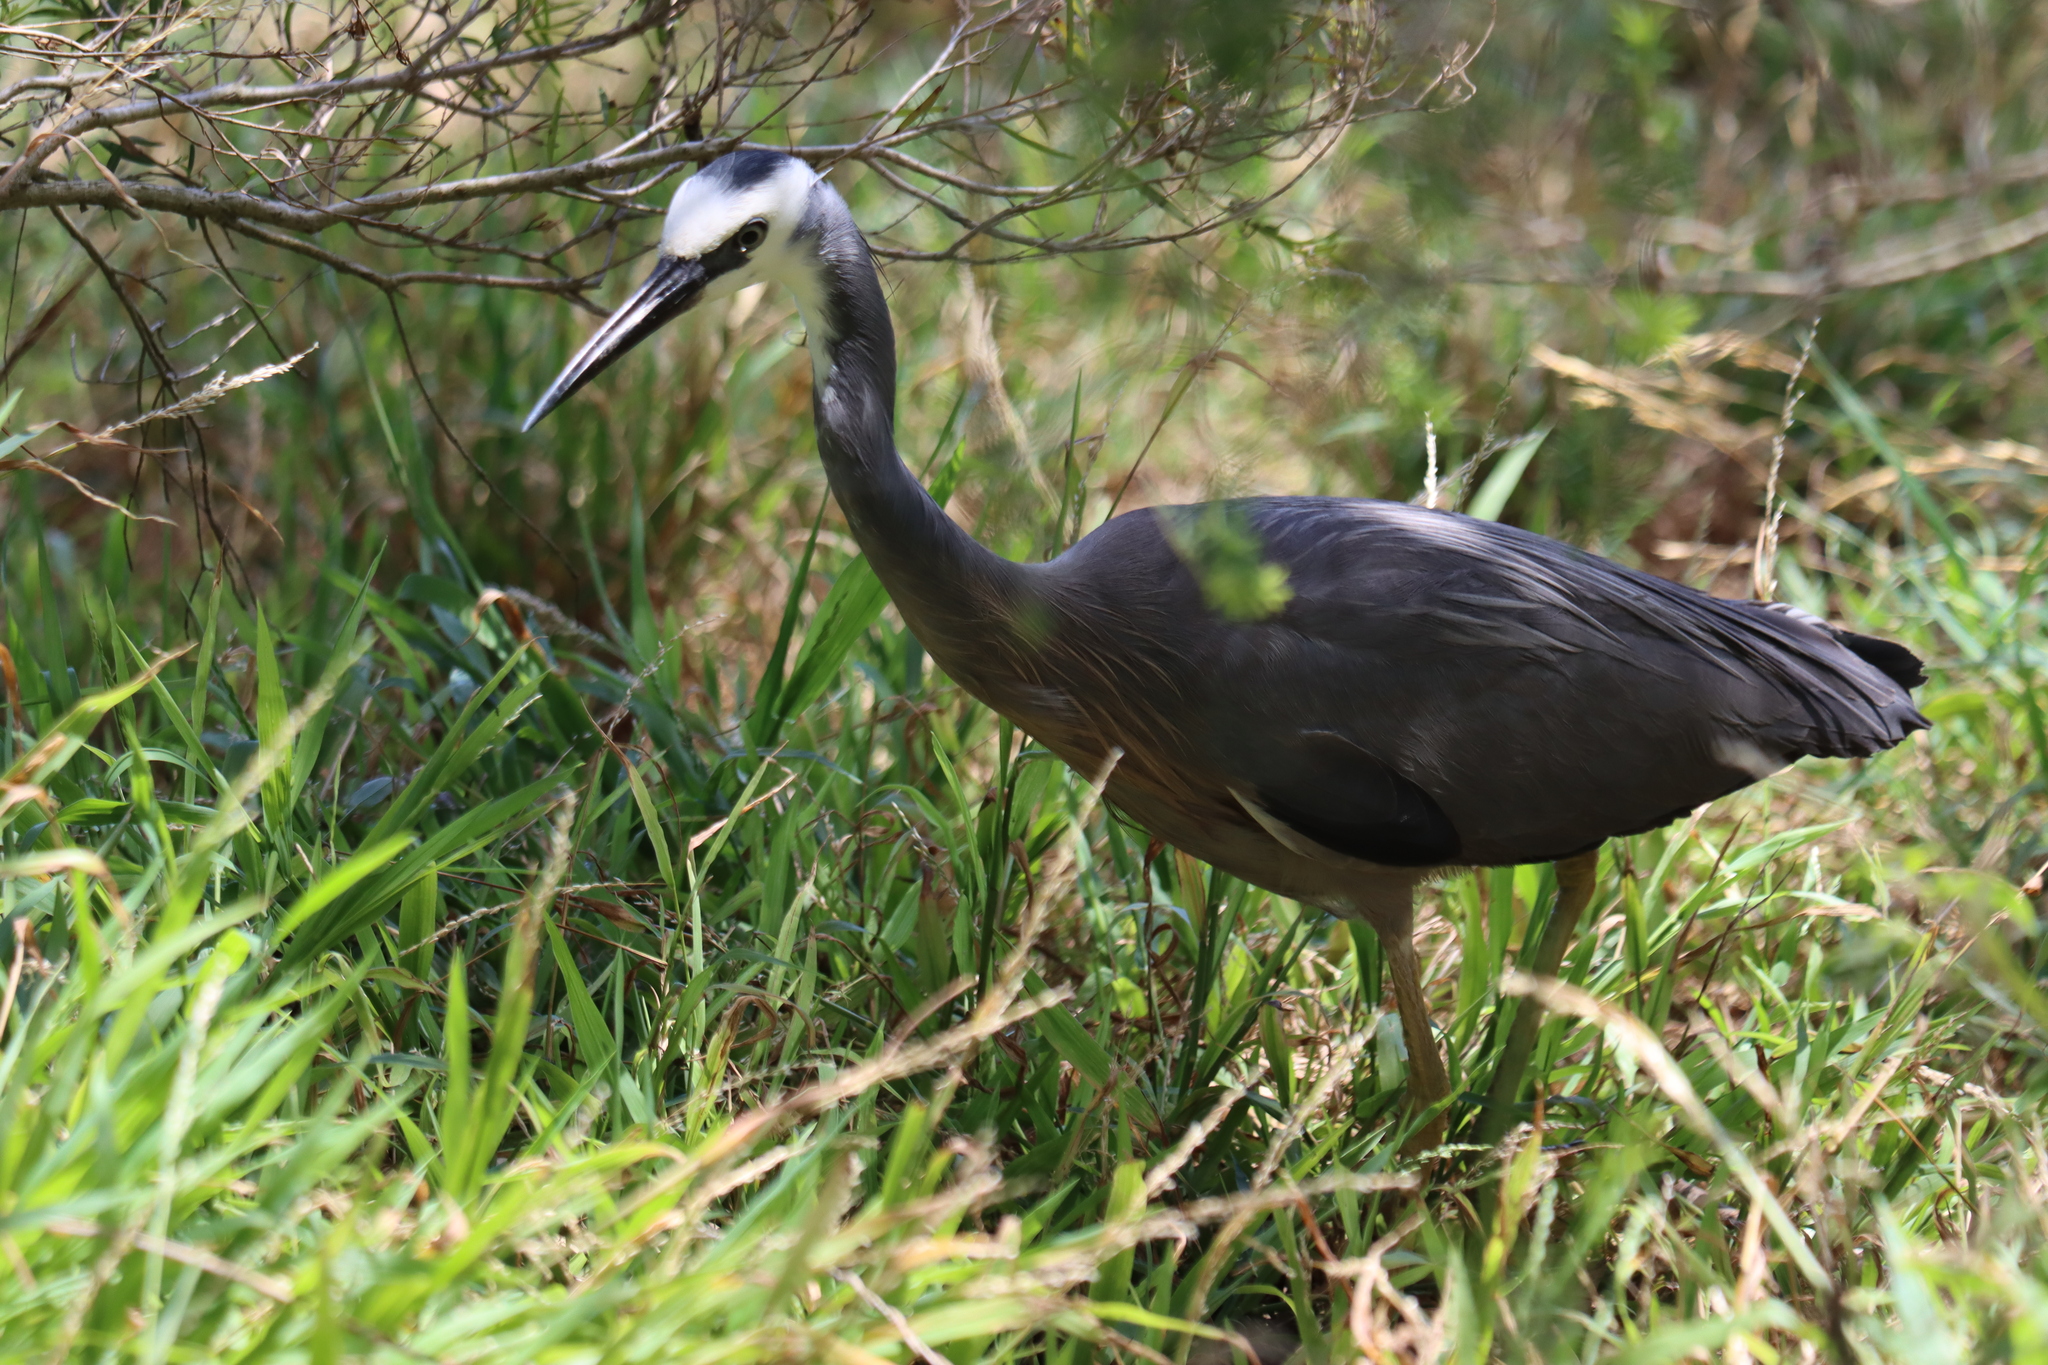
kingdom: Animalia
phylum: Chordata
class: Aves
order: Pelecaniformes
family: Ardeidae
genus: Egretta
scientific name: Egretta novaehollandiae
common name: White-faced heron
